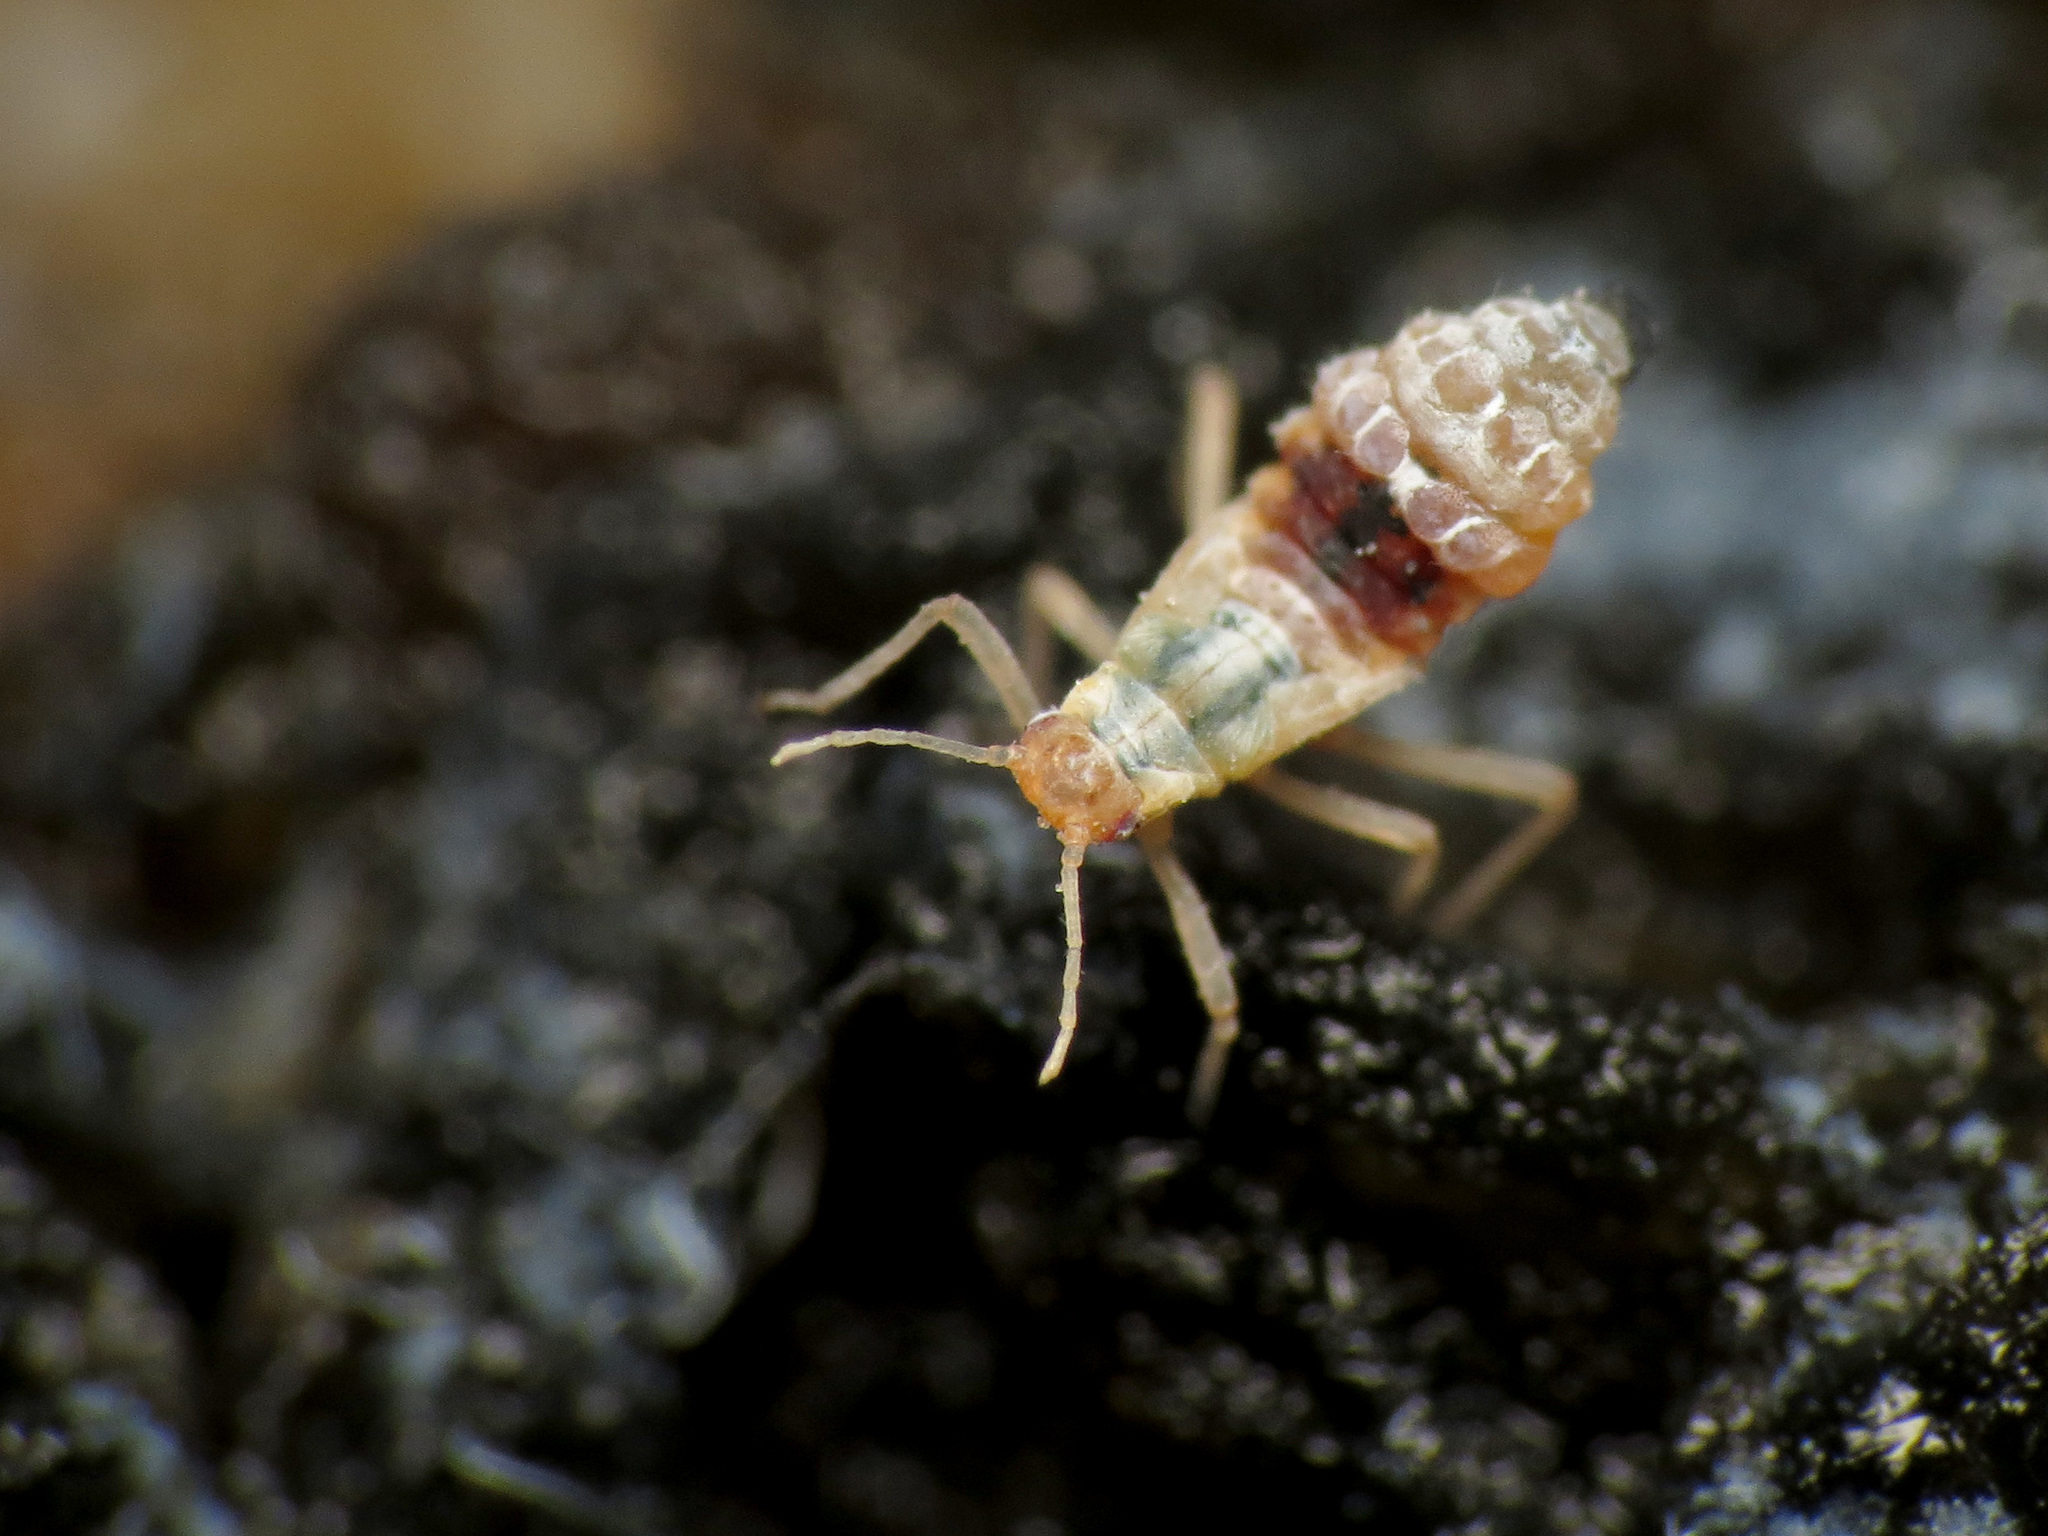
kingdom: Animalia
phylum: Arthropoda
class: Insecta
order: Hemiptera
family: Aphididae
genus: Grylloprociphilus
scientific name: Grylloprociphilus imbricator
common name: Beech blight aphid
